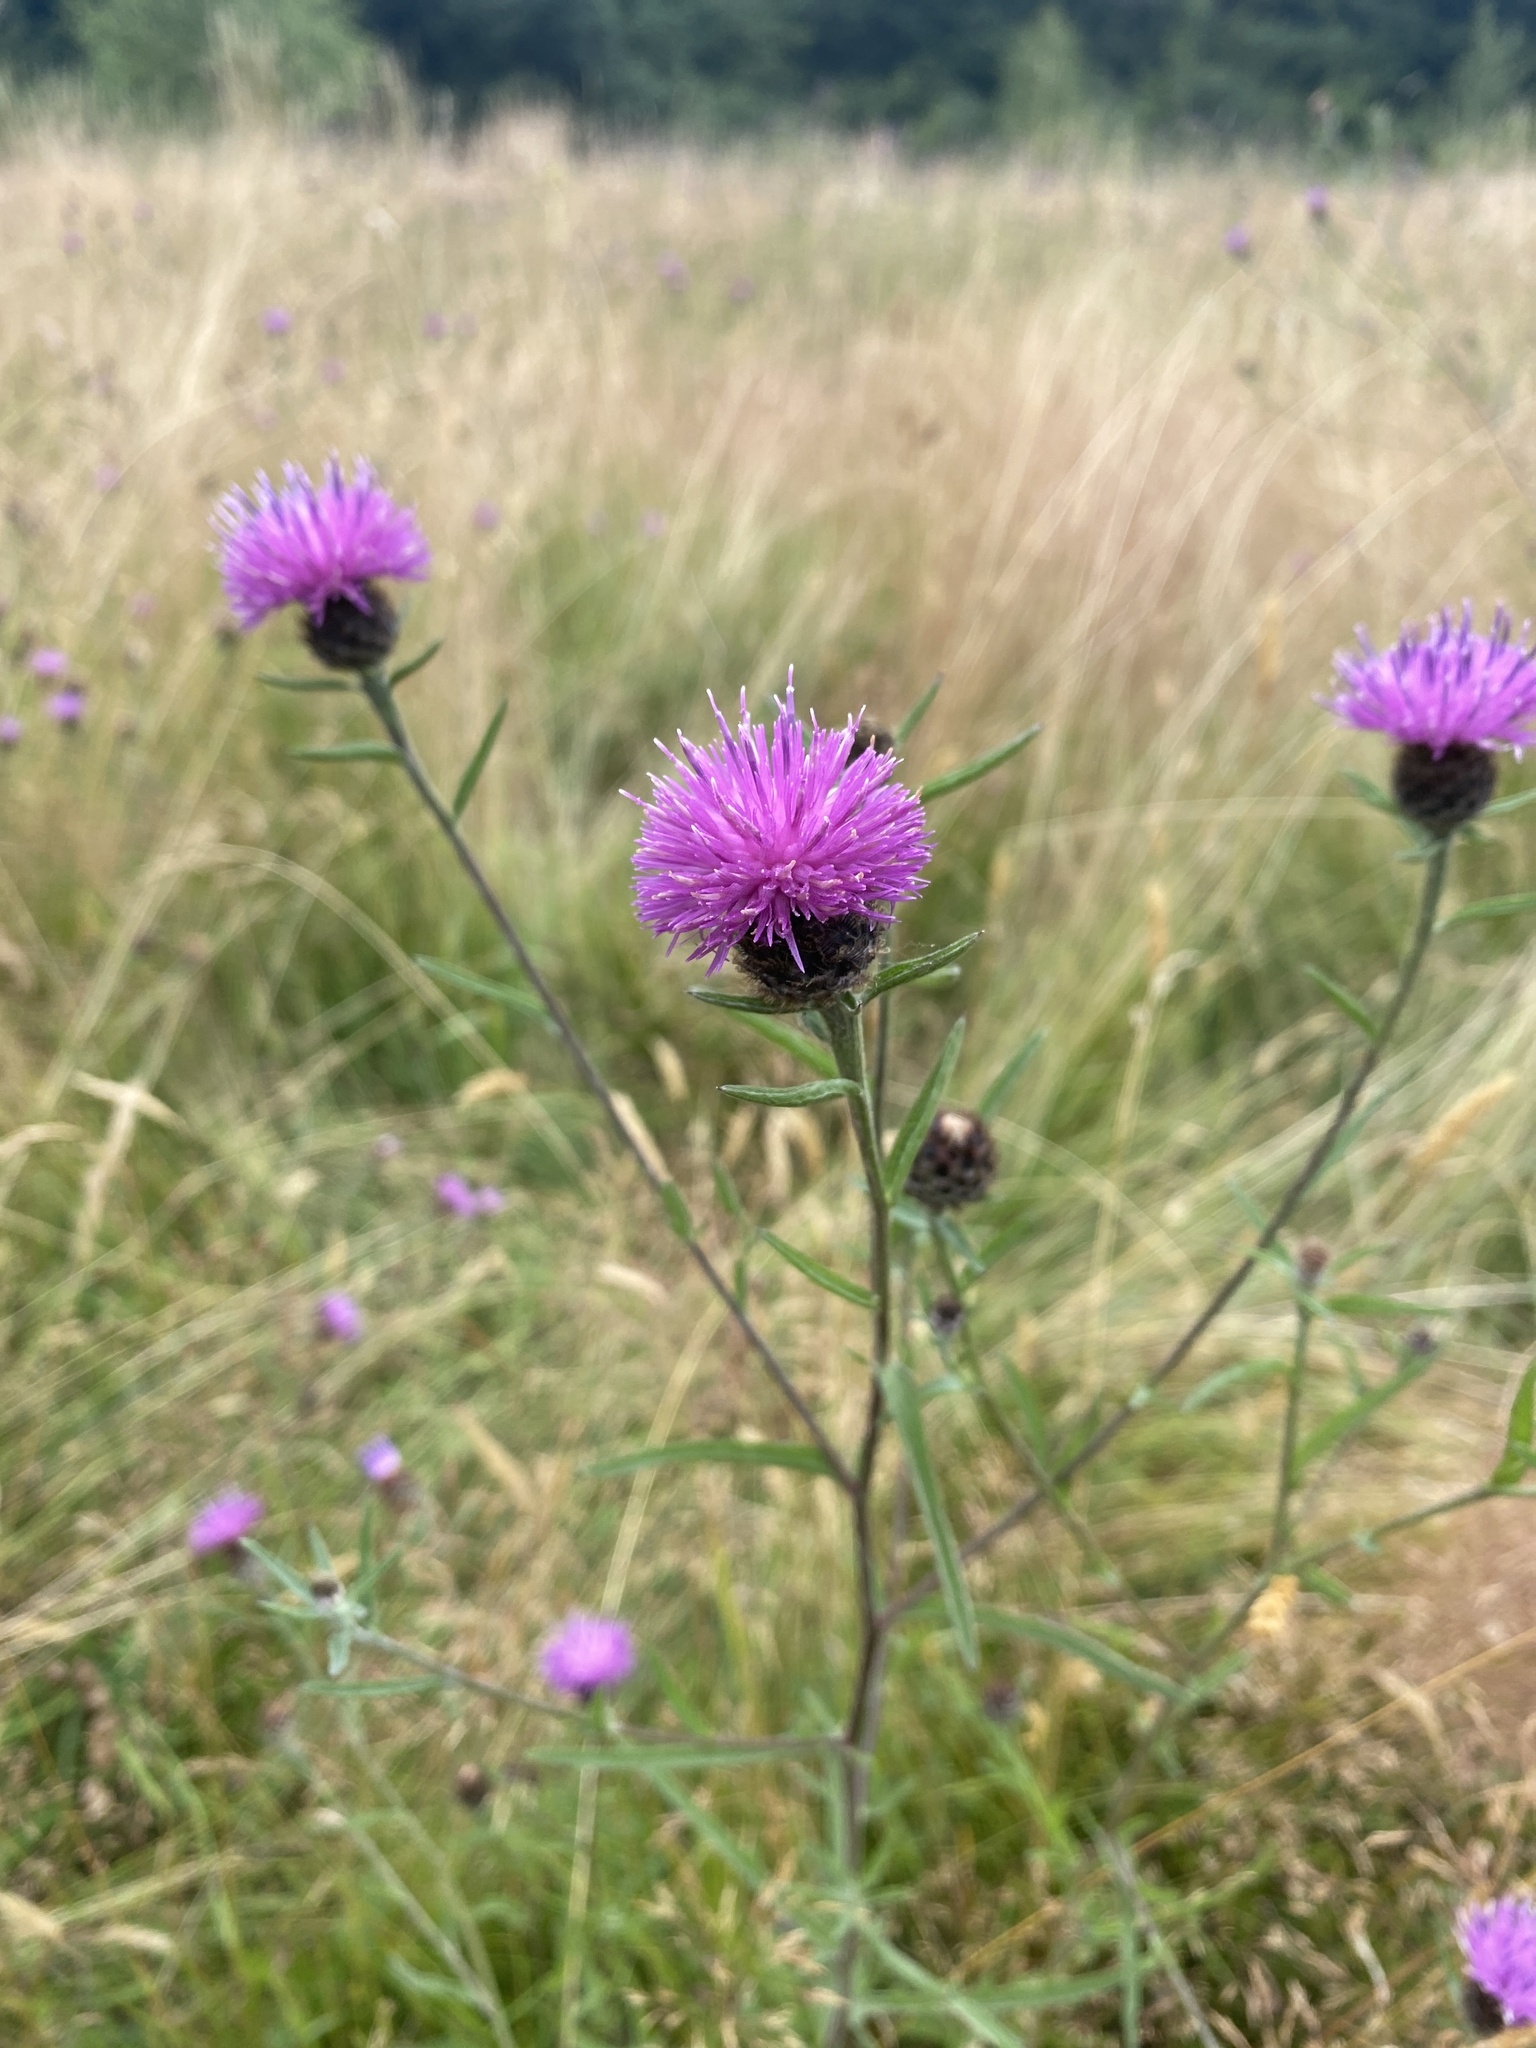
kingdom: Plantae
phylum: Tracheophyta
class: Magnoliopsida
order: Asterales
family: Asteraceae
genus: Centaurea
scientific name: Centaurea nigra
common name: Lesser knapweed
